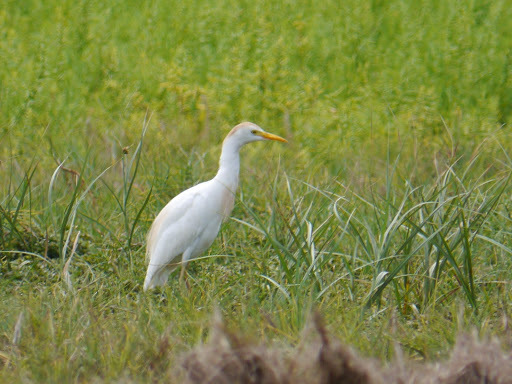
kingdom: Animalia
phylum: Chordata
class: Aves
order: Pelecaniformes
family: Ardeidae
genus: Bubulcus
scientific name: Bubulcus ibis
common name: Cattle egret
